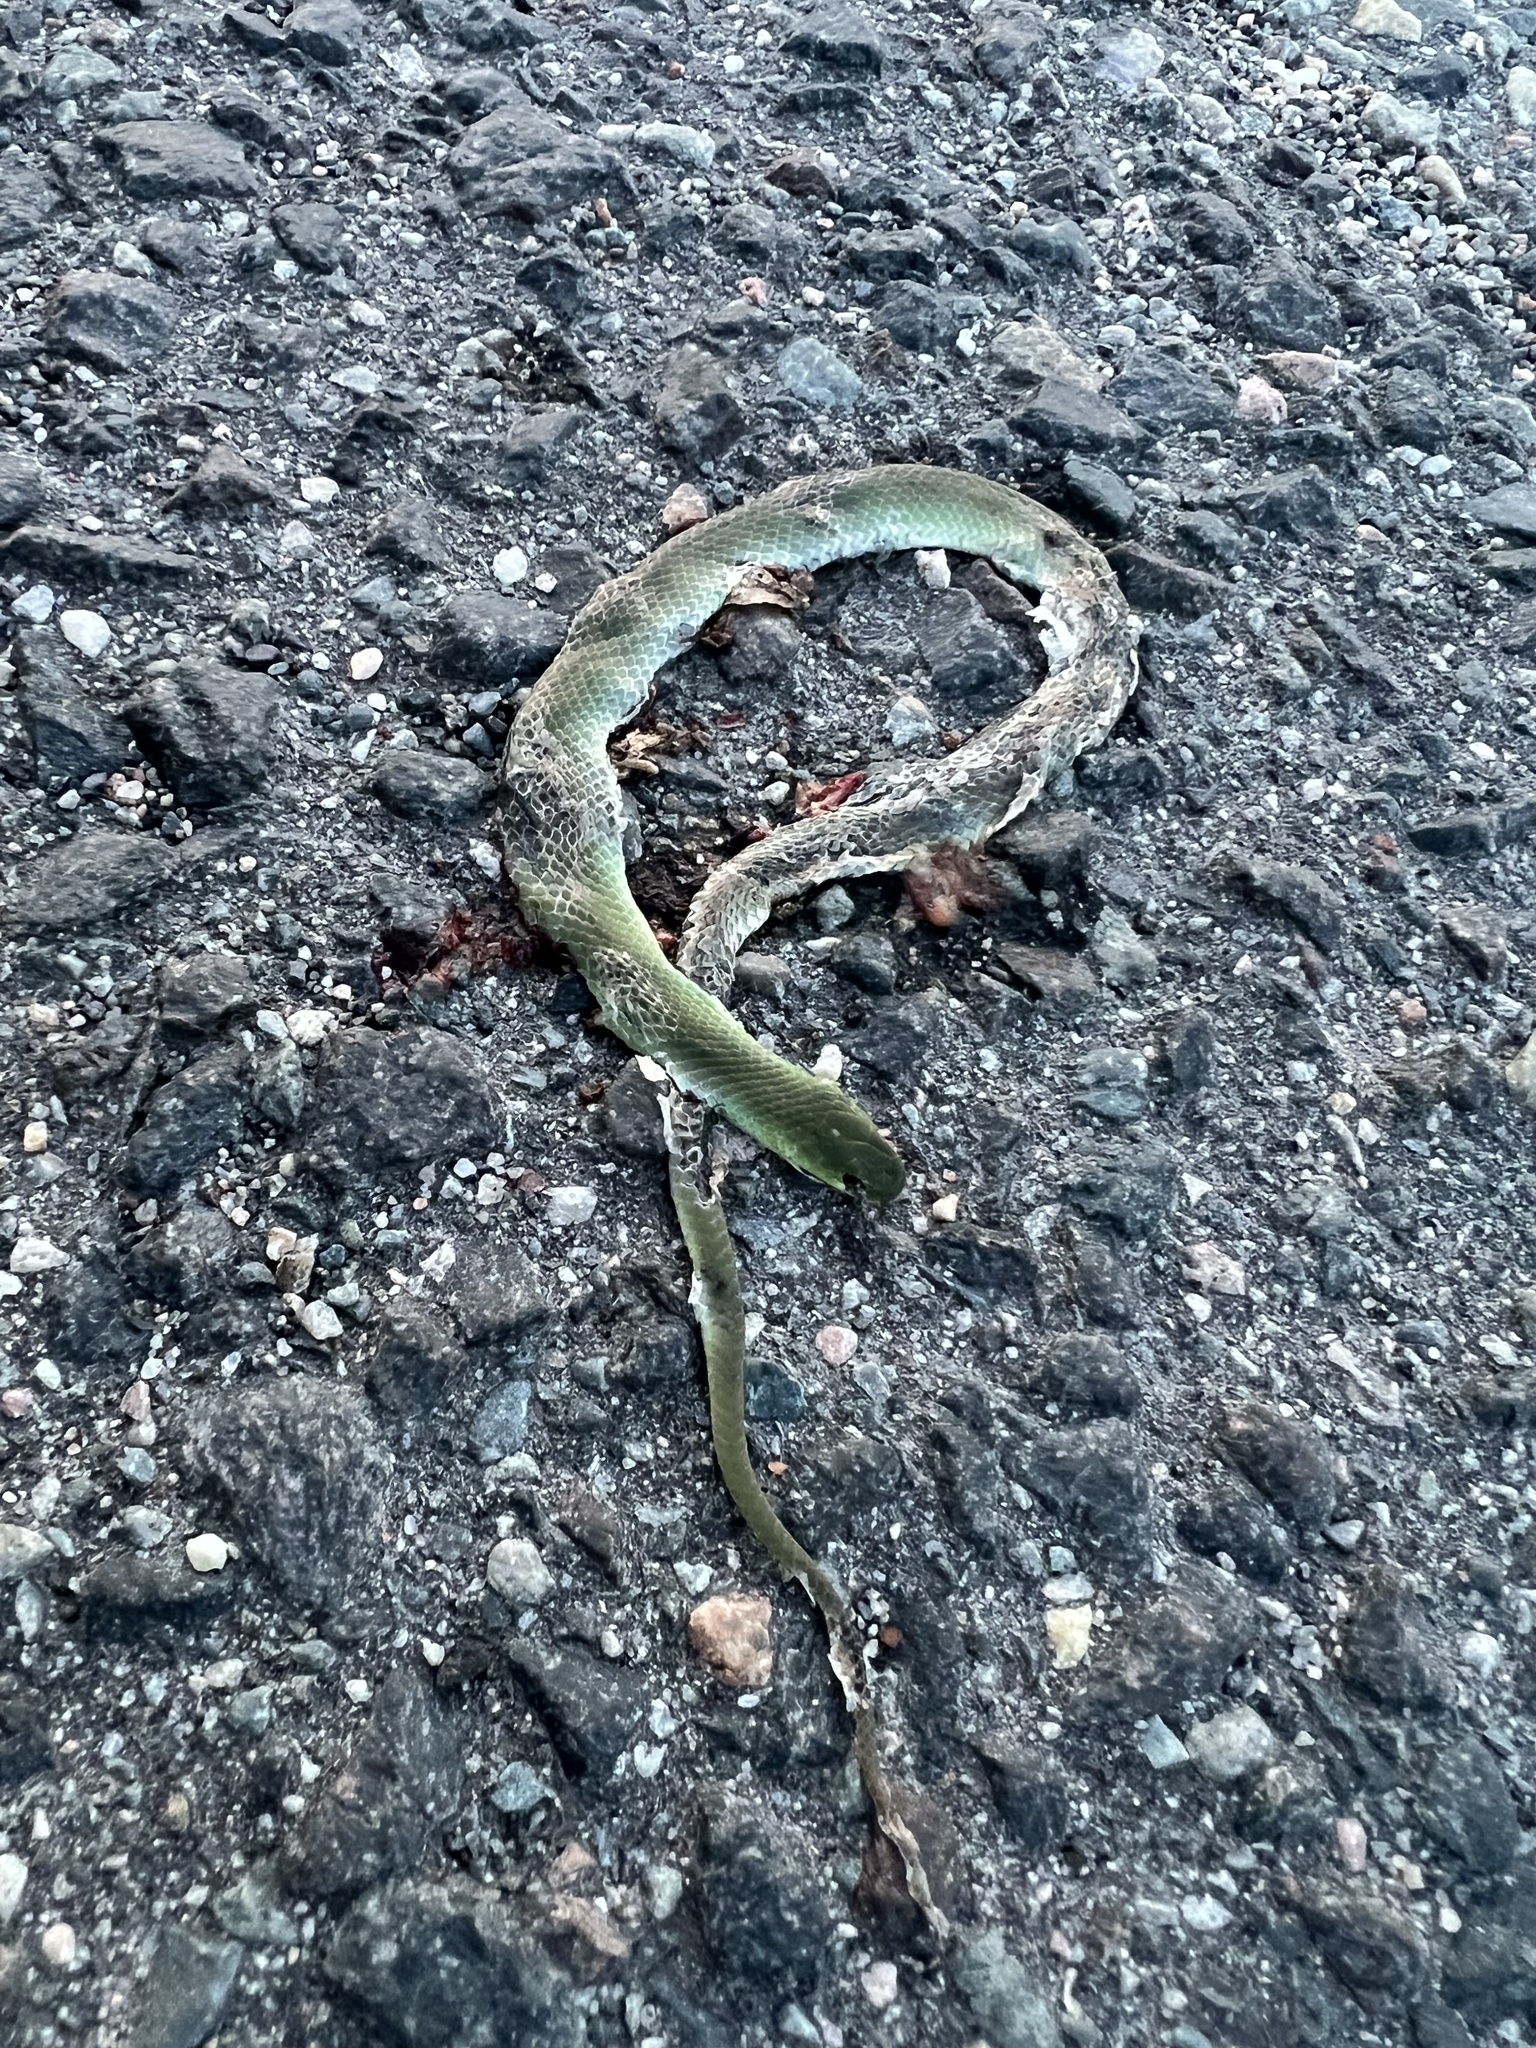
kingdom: Animalia
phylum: Chordata
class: Squamata
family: Colubridae
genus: Opheodrys
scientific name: Opheodrys vernalis
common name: Smooth green snake
